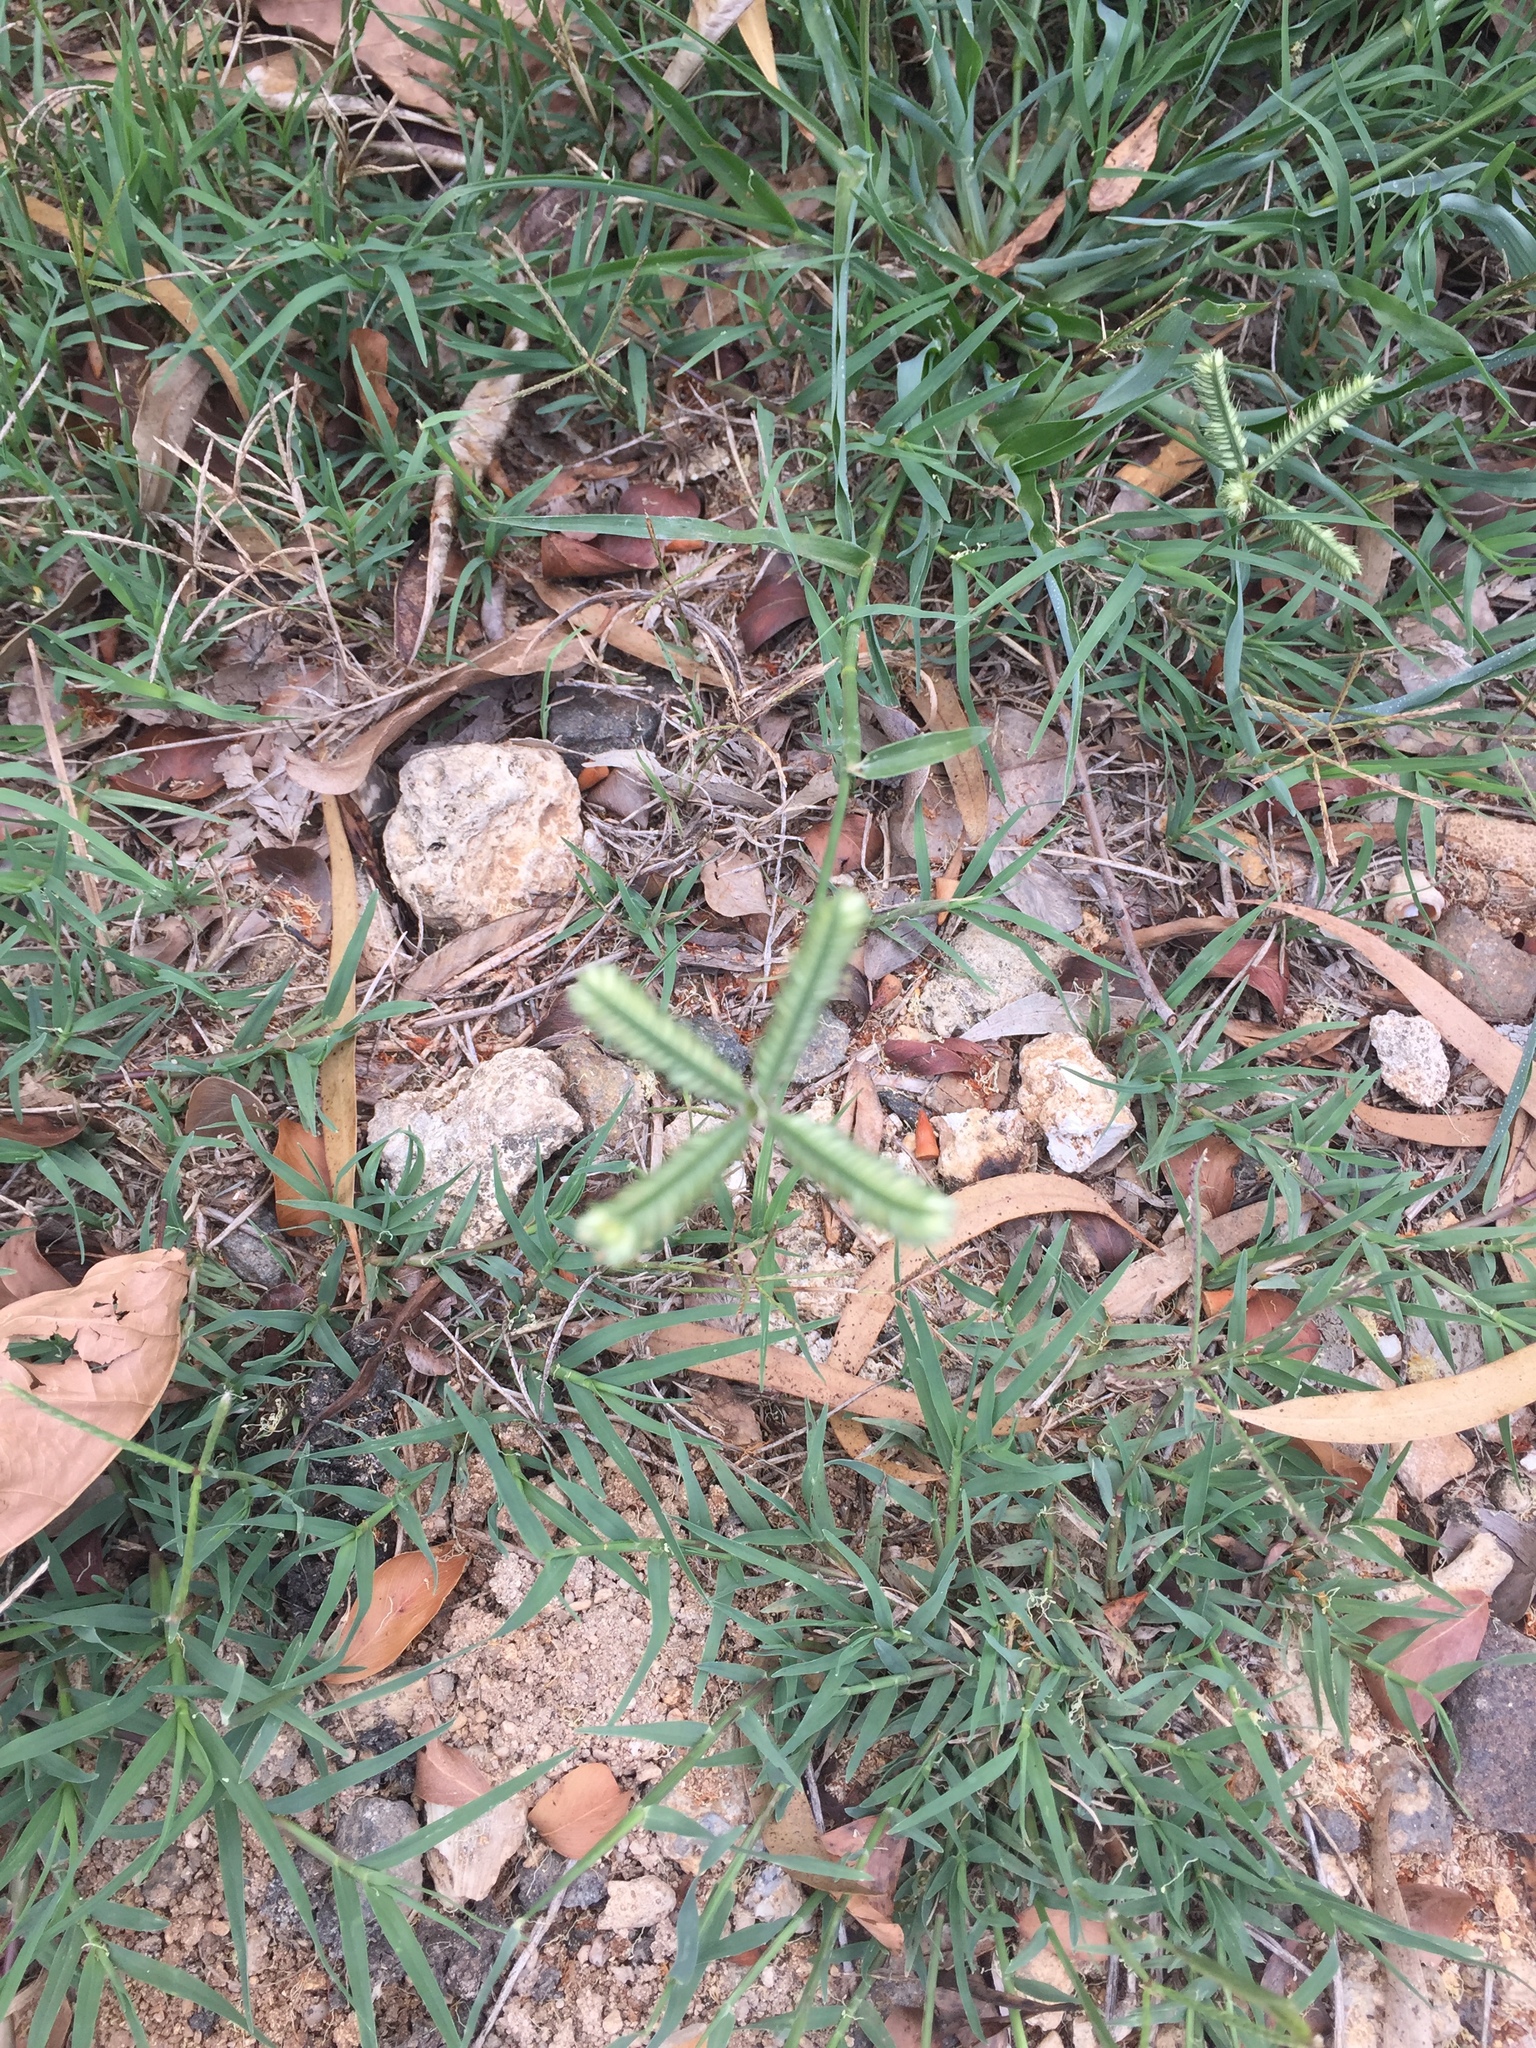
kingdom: Plantae
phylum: Tracheophyta
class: Liliopsida
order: Poales
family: Poaceae
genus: Dactyloctenium
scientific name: Dactyloctenium aegyptium
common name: Egyptian grass
